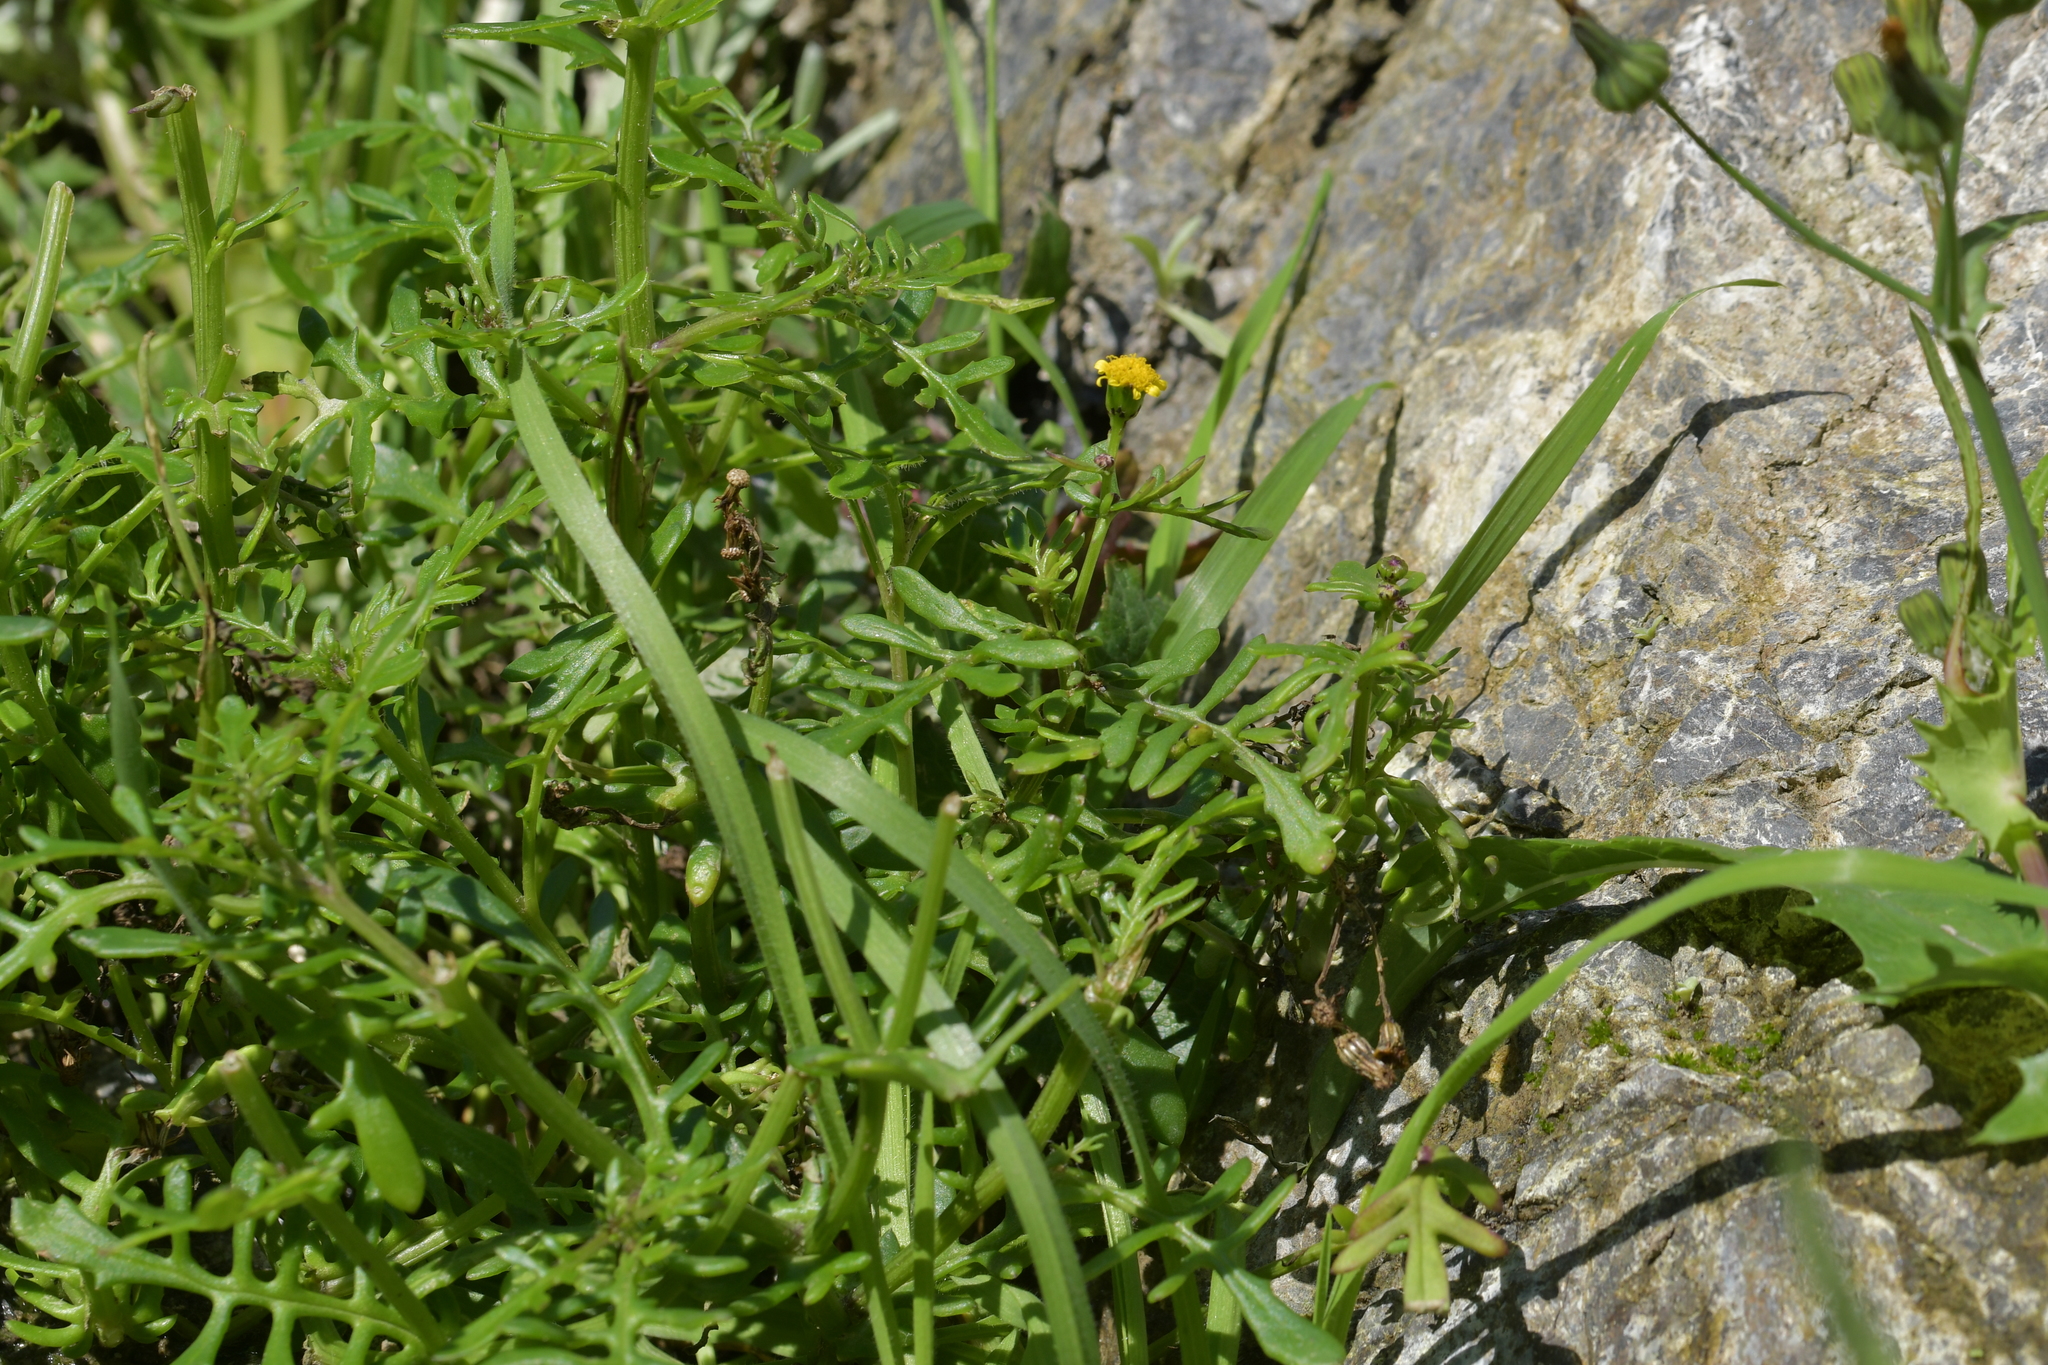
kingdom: Plantae
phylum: Tracheophyta
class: Magnoliopsida
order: Asterales
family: Asteraceae
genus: Senecio
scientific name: Senecio lautus
